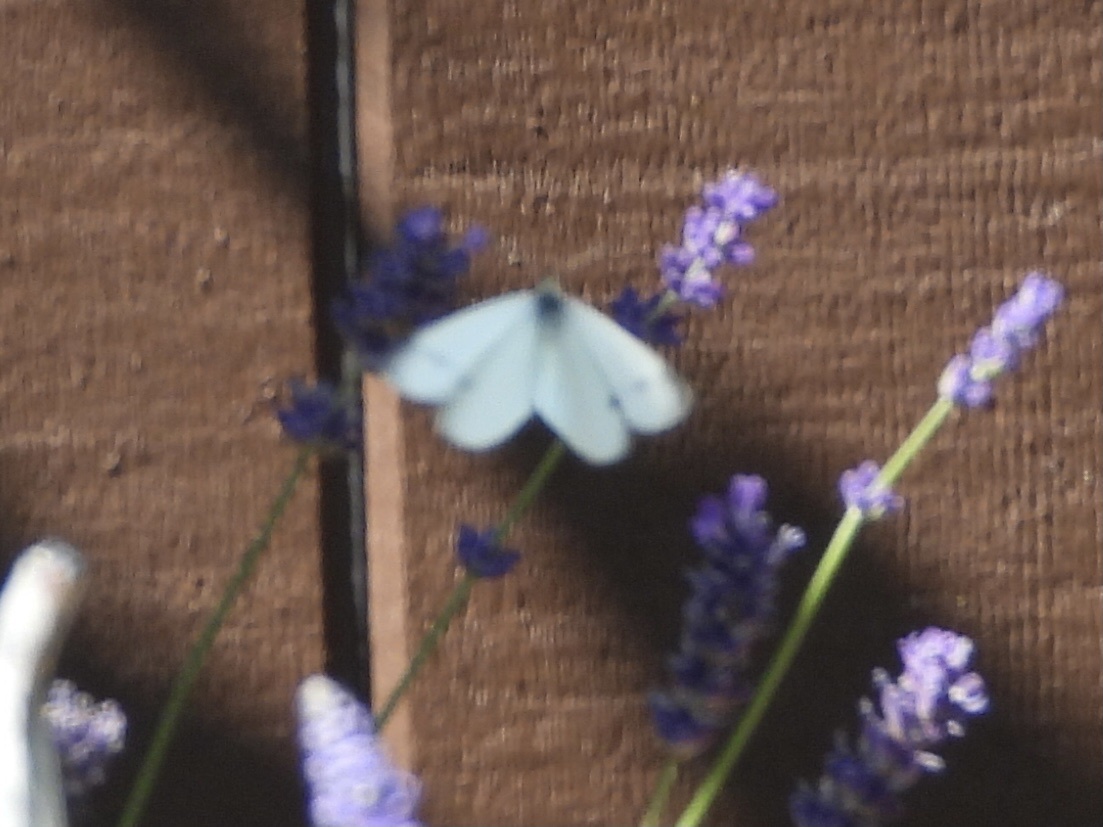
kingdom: Animalia
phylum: Arthropoda
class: Insecta
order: Lepidoptera
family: Pieridae
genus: Pieris
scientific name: Pieris rapae
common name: Small white
